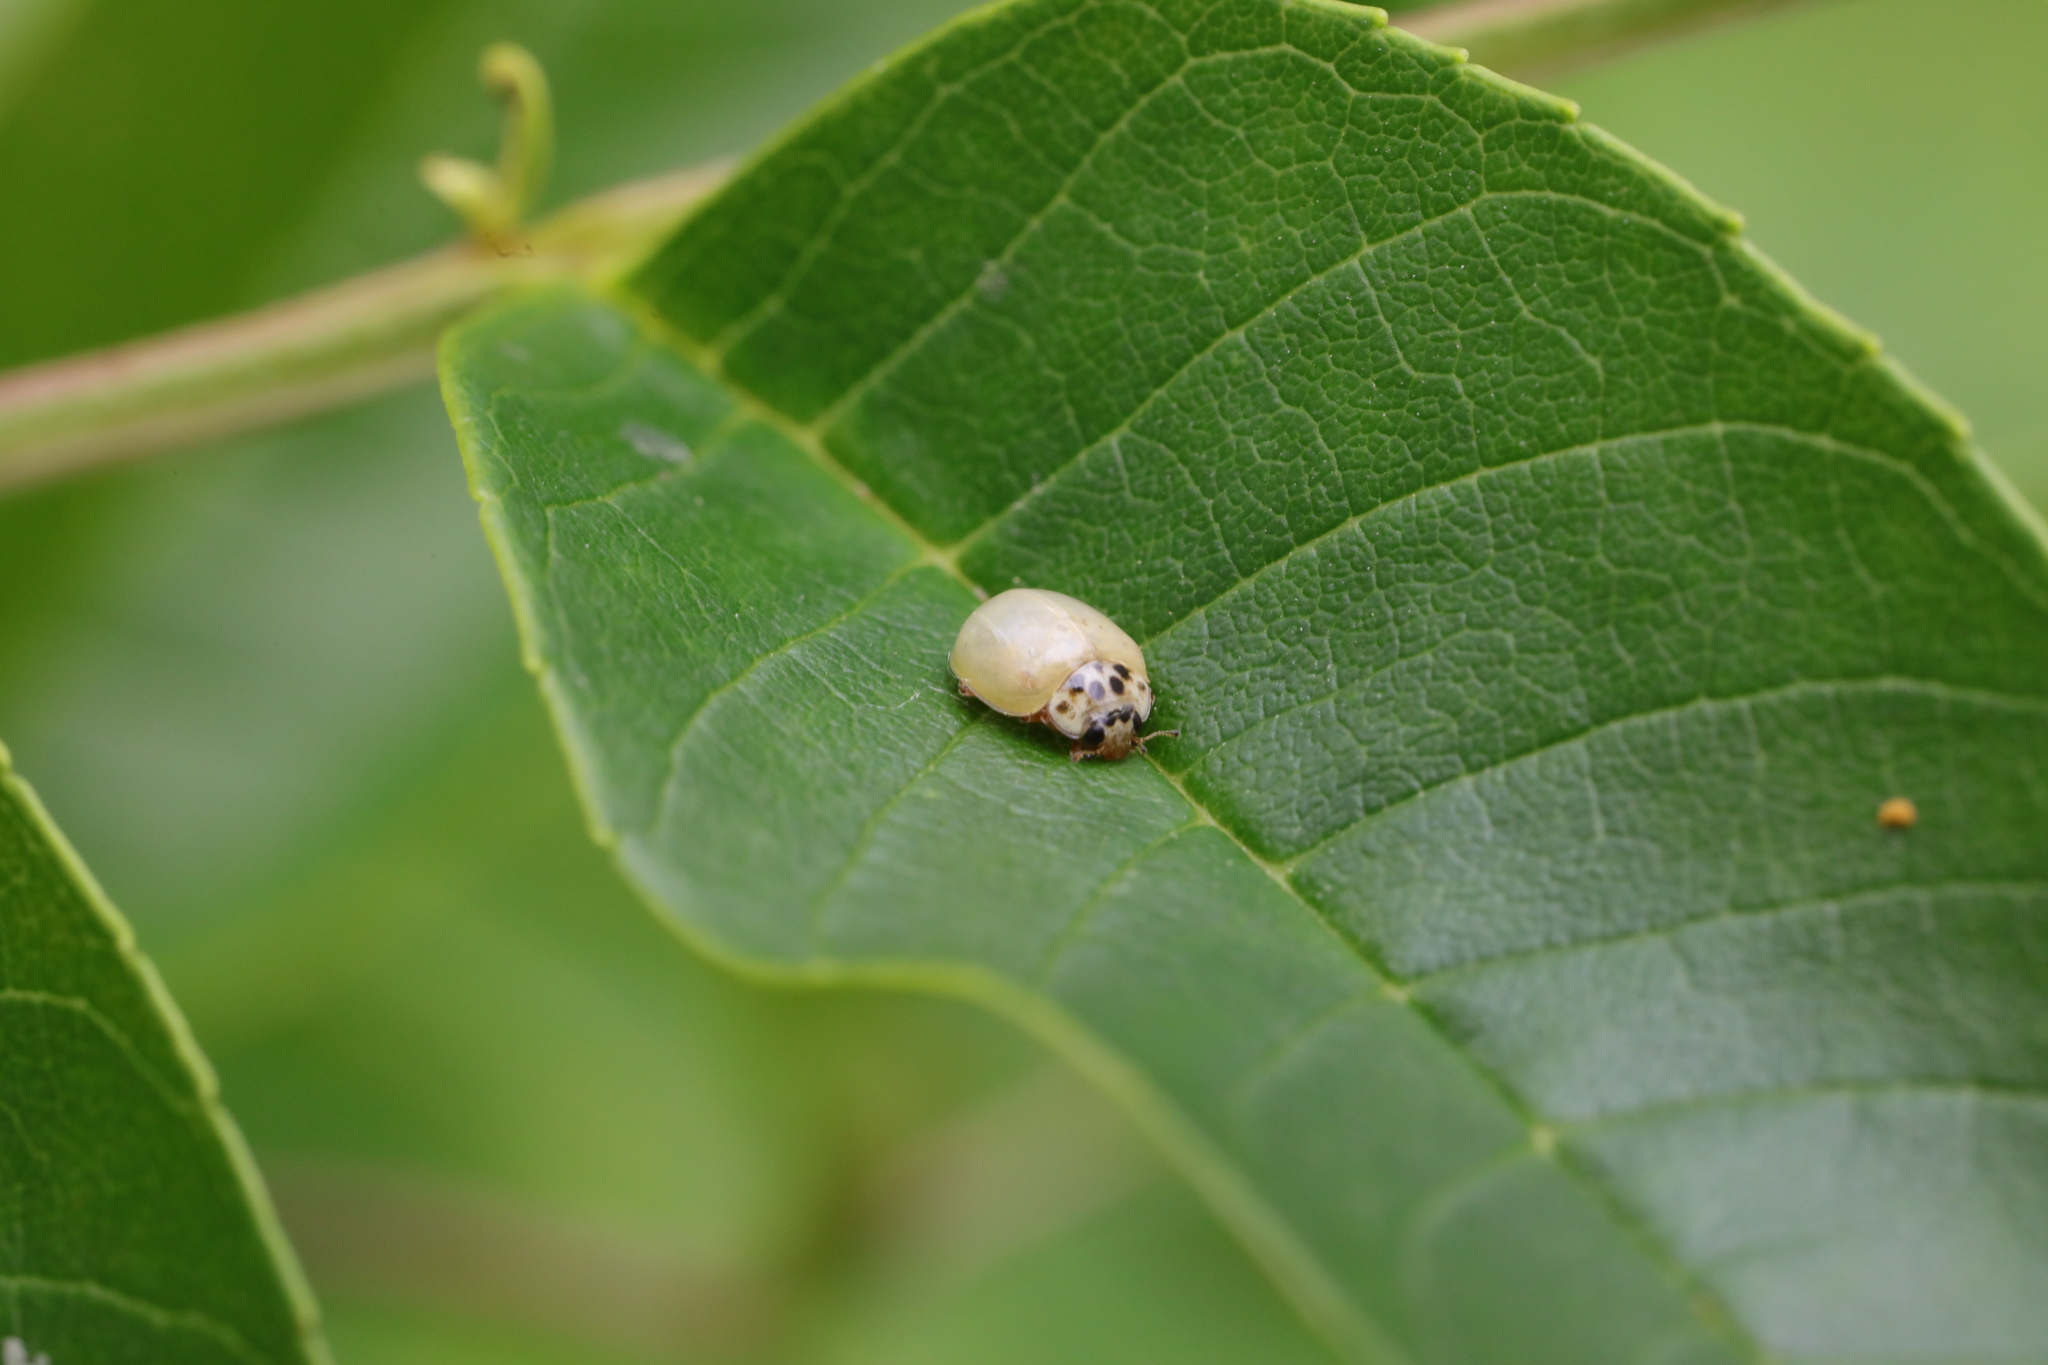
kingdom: Animalia
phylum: Arthropoda
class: Insecta
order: Coleoptera
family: Coccinellidae
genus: Adalia
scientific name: Adalia decempunctata
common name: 10-spot ladybird
